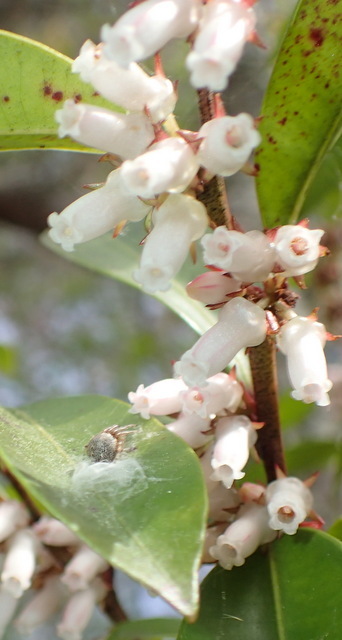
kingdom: Plantae
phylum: Tracheophyta
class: Magnoliopsida
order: Ericales
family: Ericaceae
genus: Lyonia
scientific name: Lyonia lucida
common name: Fetterbush
